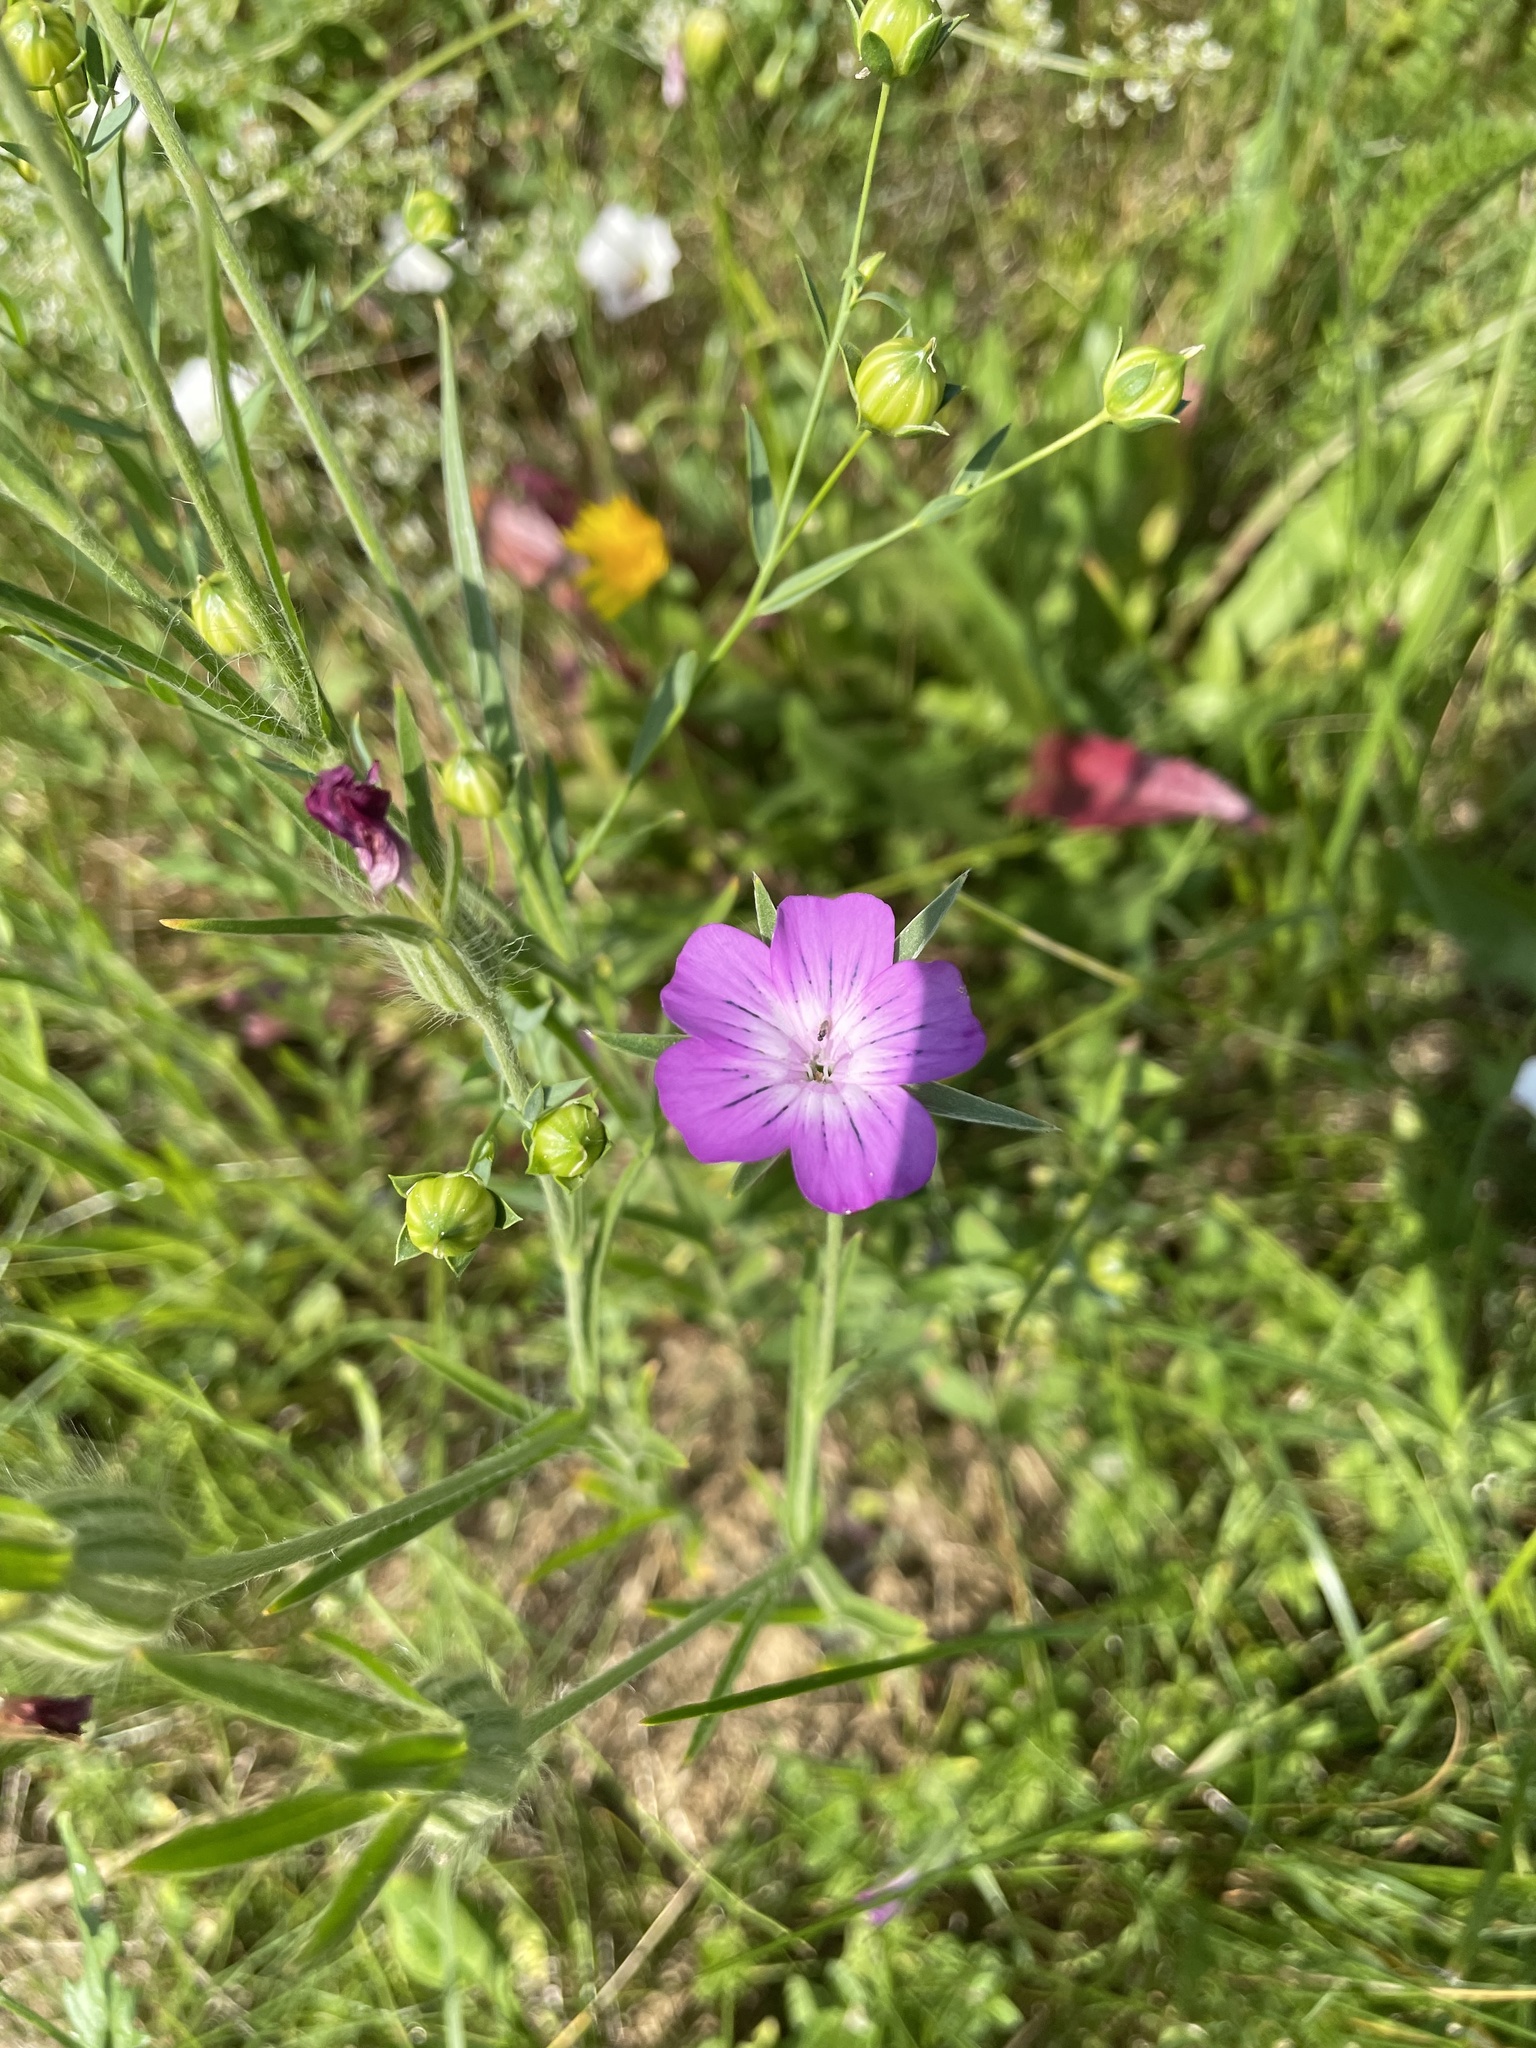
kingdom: Plantae
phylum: Tracheophyta
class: Magnoliopsida
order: Caryophyllales
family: Caryophyllaceae
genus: Agrostemma
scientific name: Agrostemma githago
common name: Common corncockle
